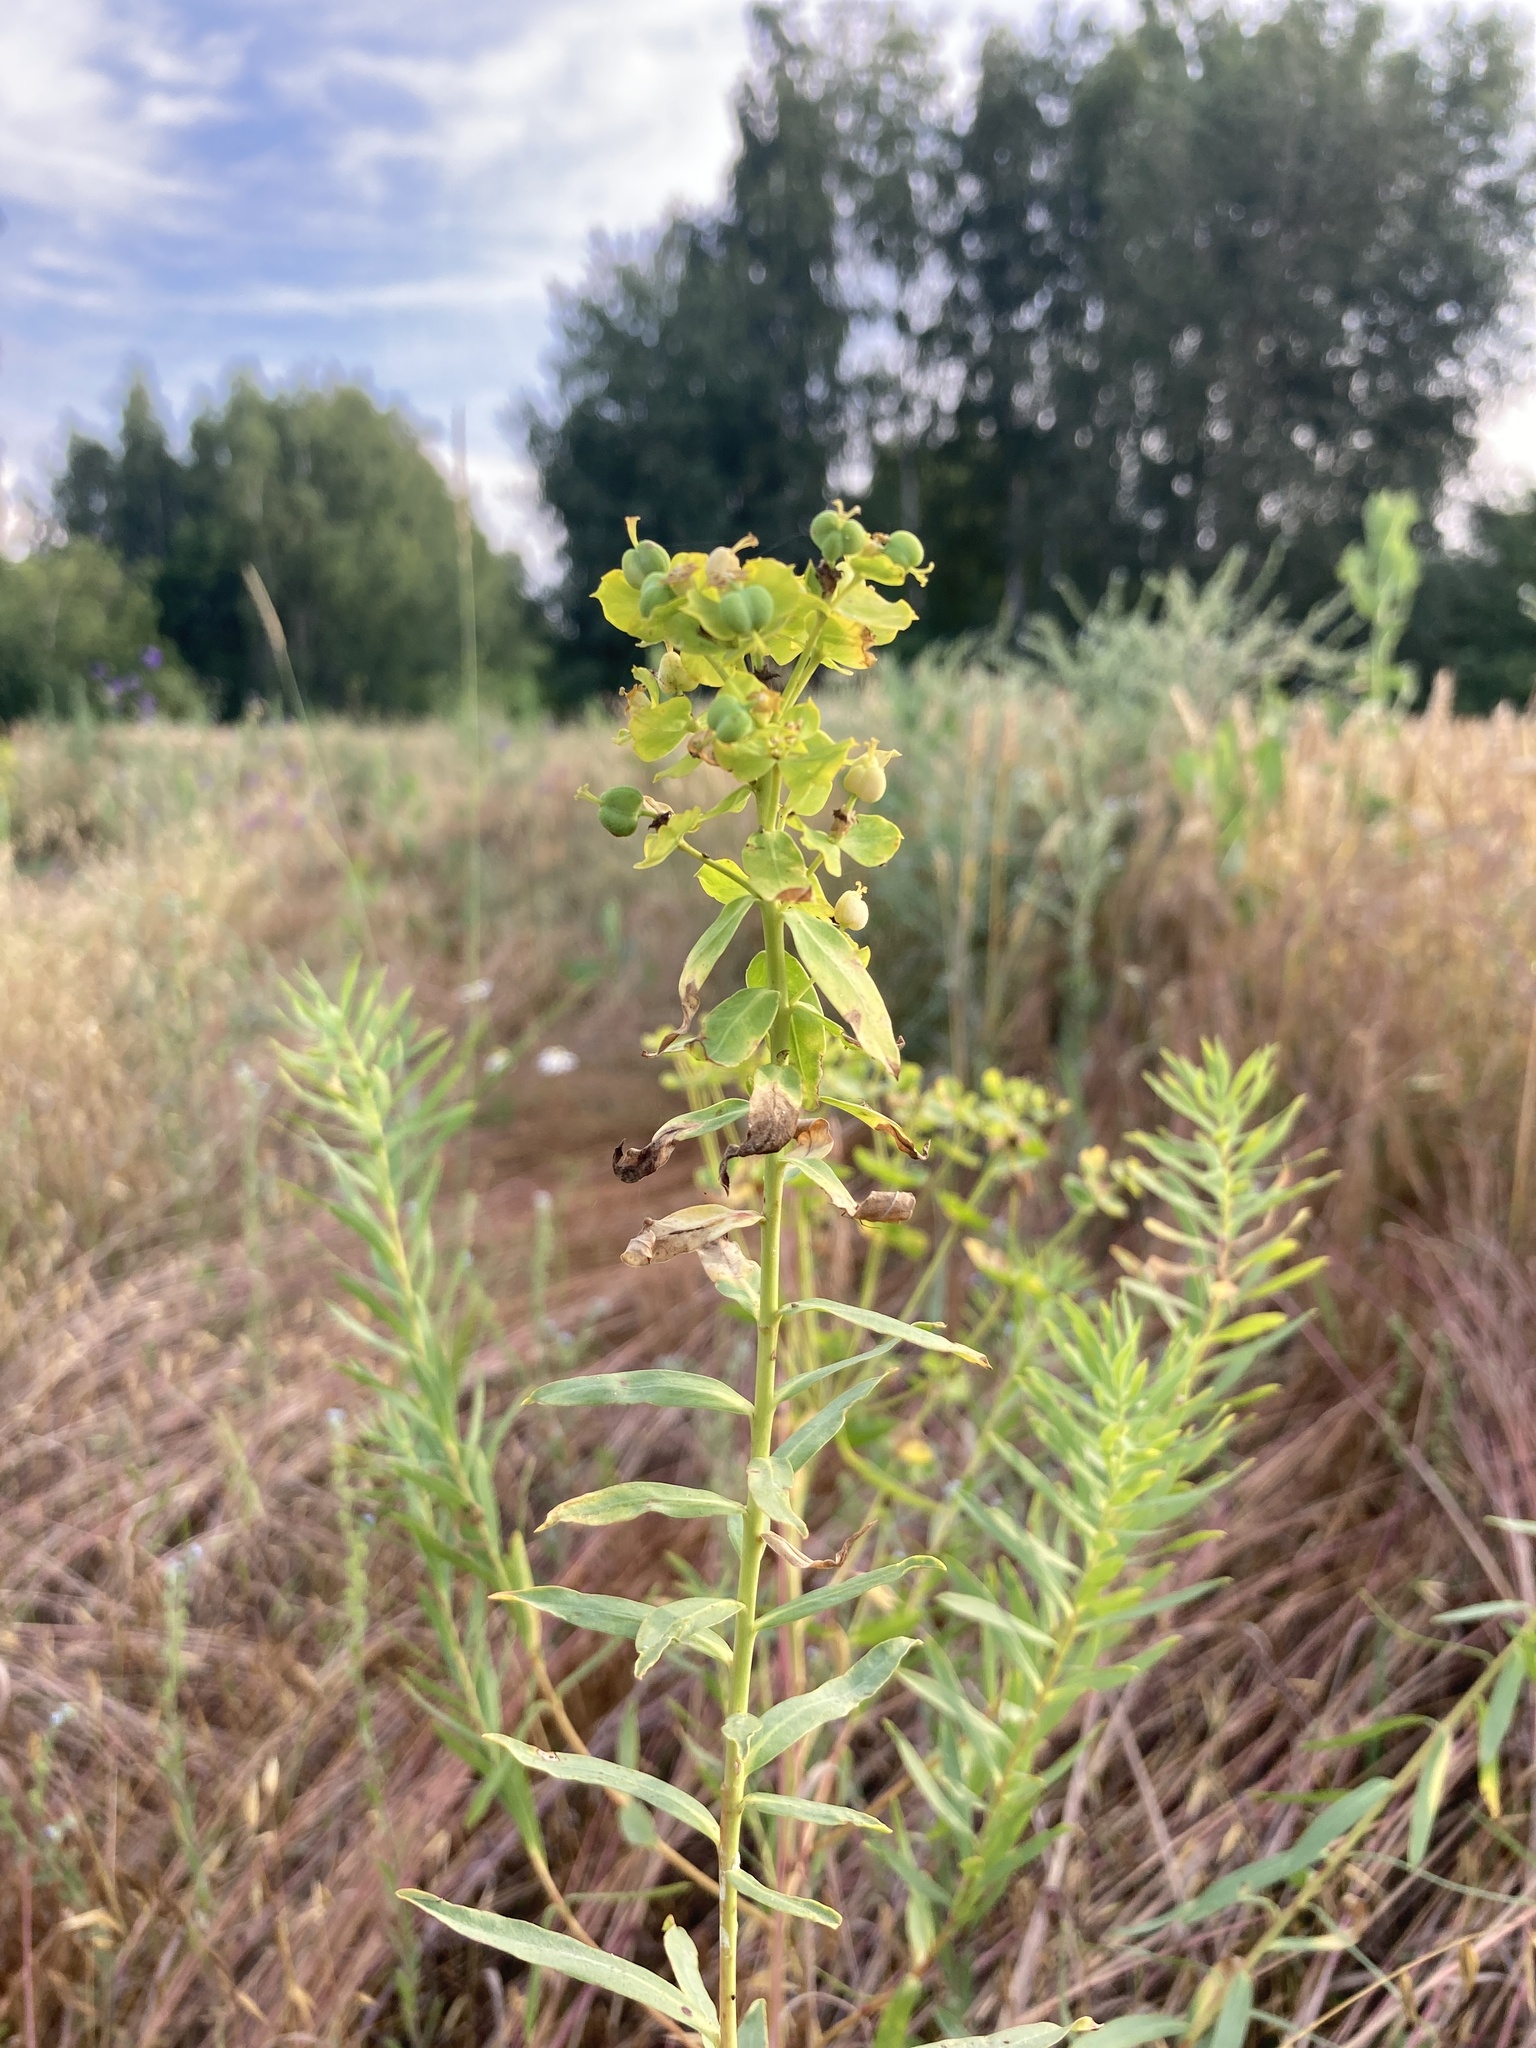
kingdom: Plantae
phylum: Tracheophyta
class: Magnoliopsida
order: Malpighiales
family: Euphorbiaceae
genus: Euphorbia
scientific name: Euphorbia virgata
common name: Leafy spurge
